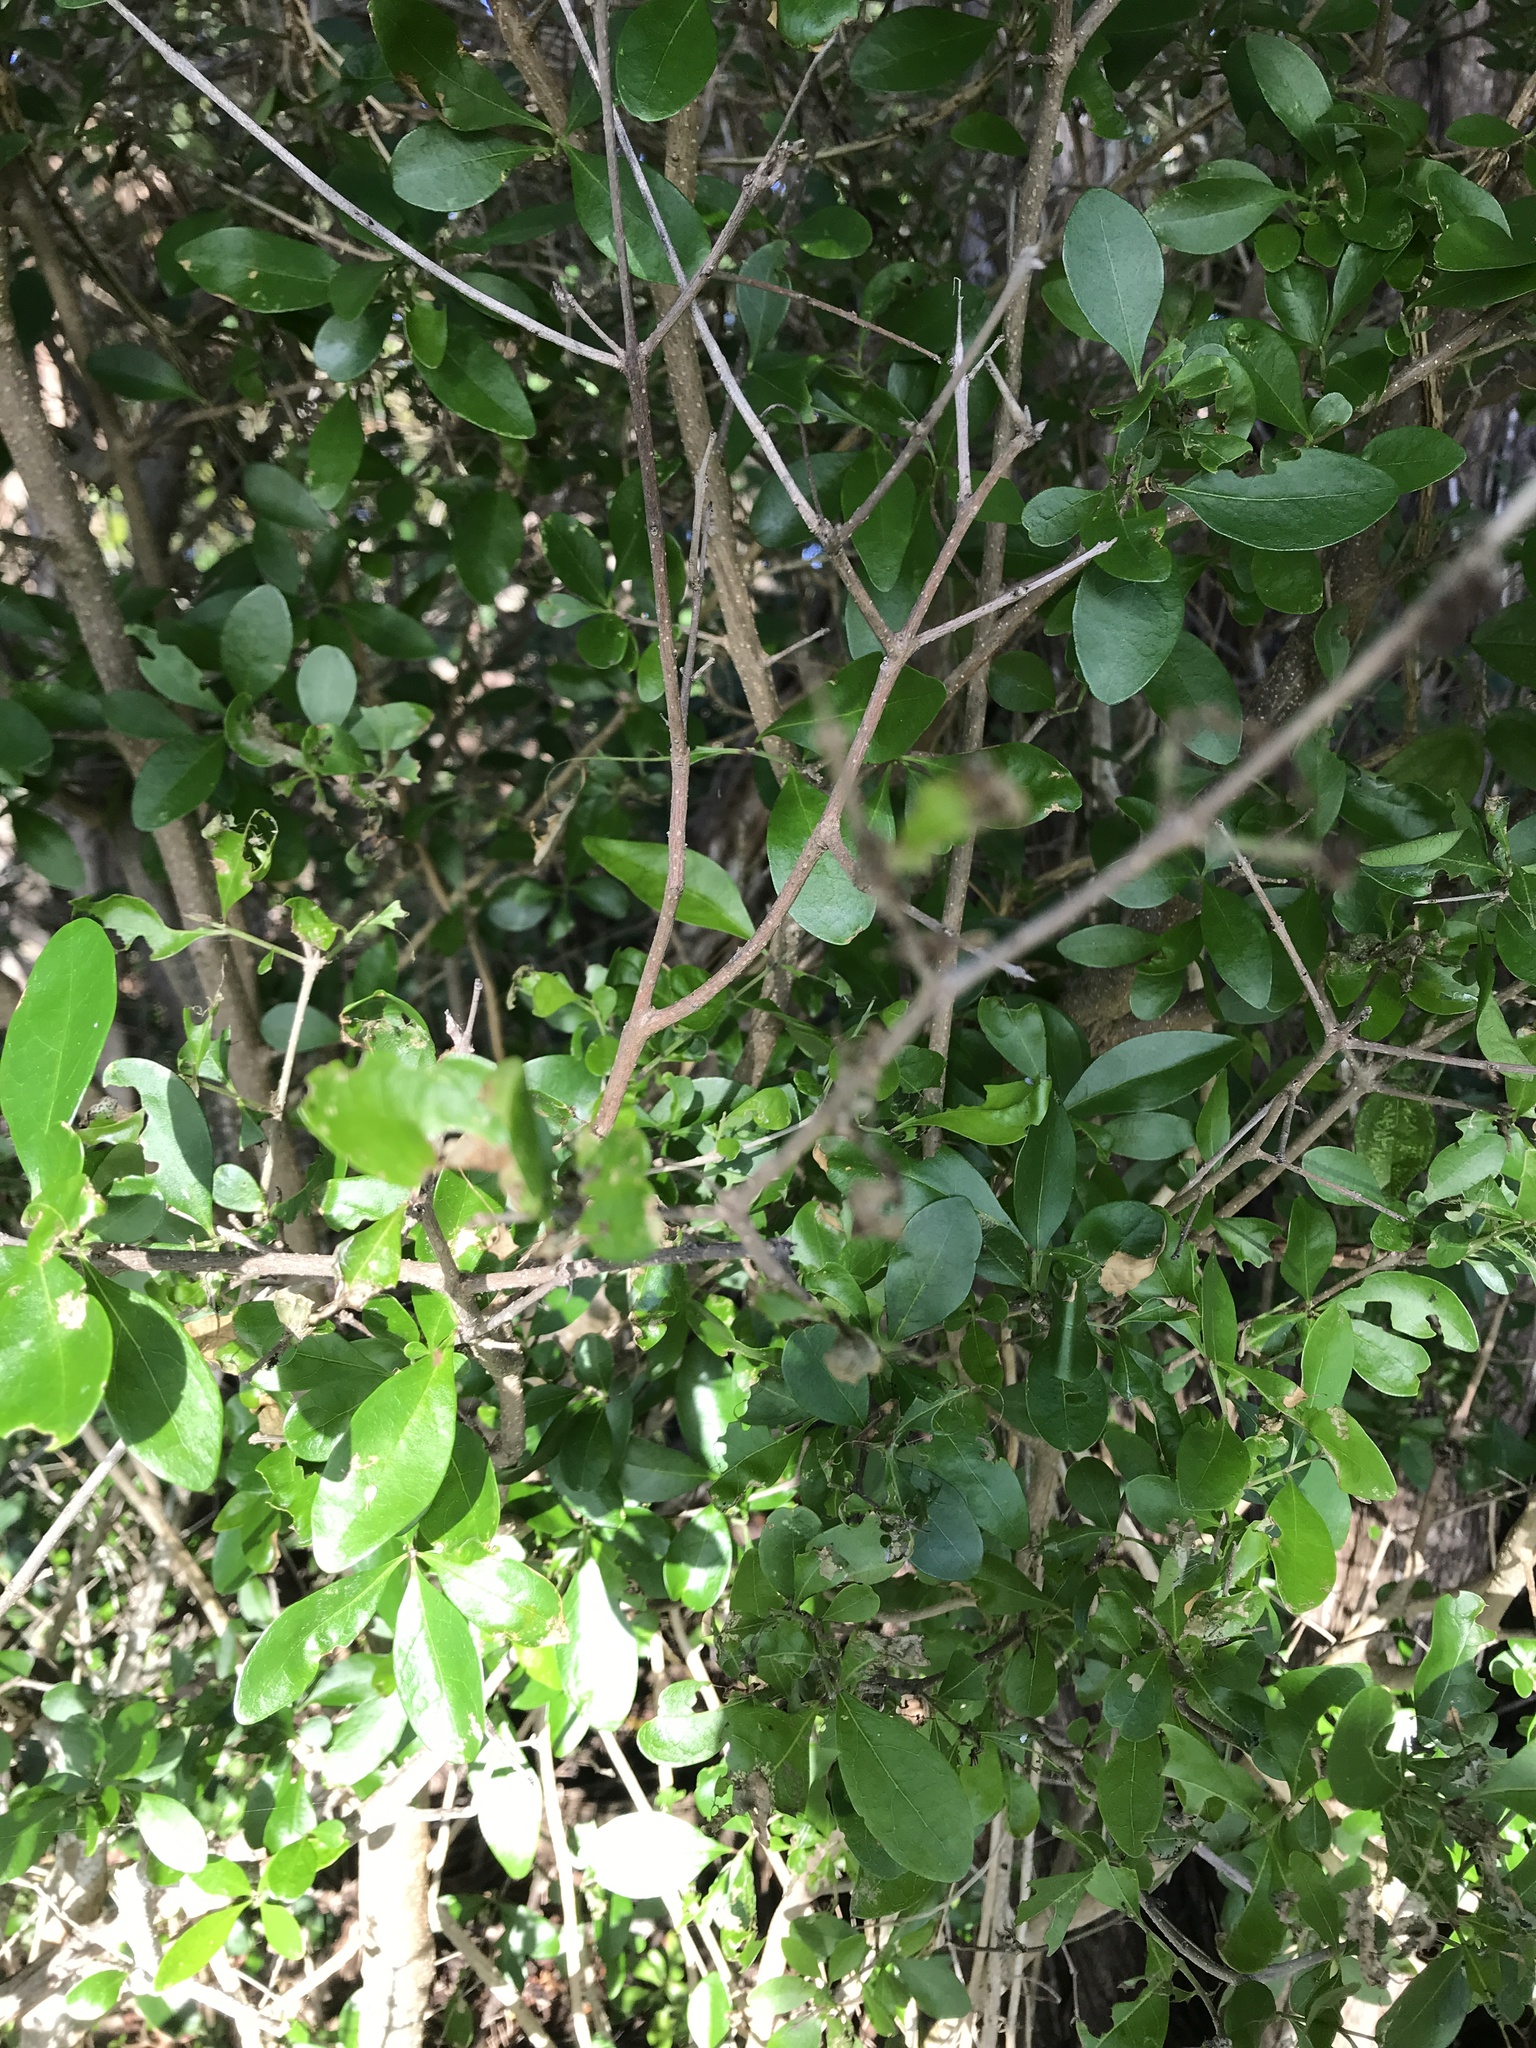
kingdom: Plantae
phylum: Tracheophyta
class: Magnoliopsida
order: Gentianales
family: Rubiaceae
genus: Randia
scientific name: Randia aculeata
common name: Inkberry
